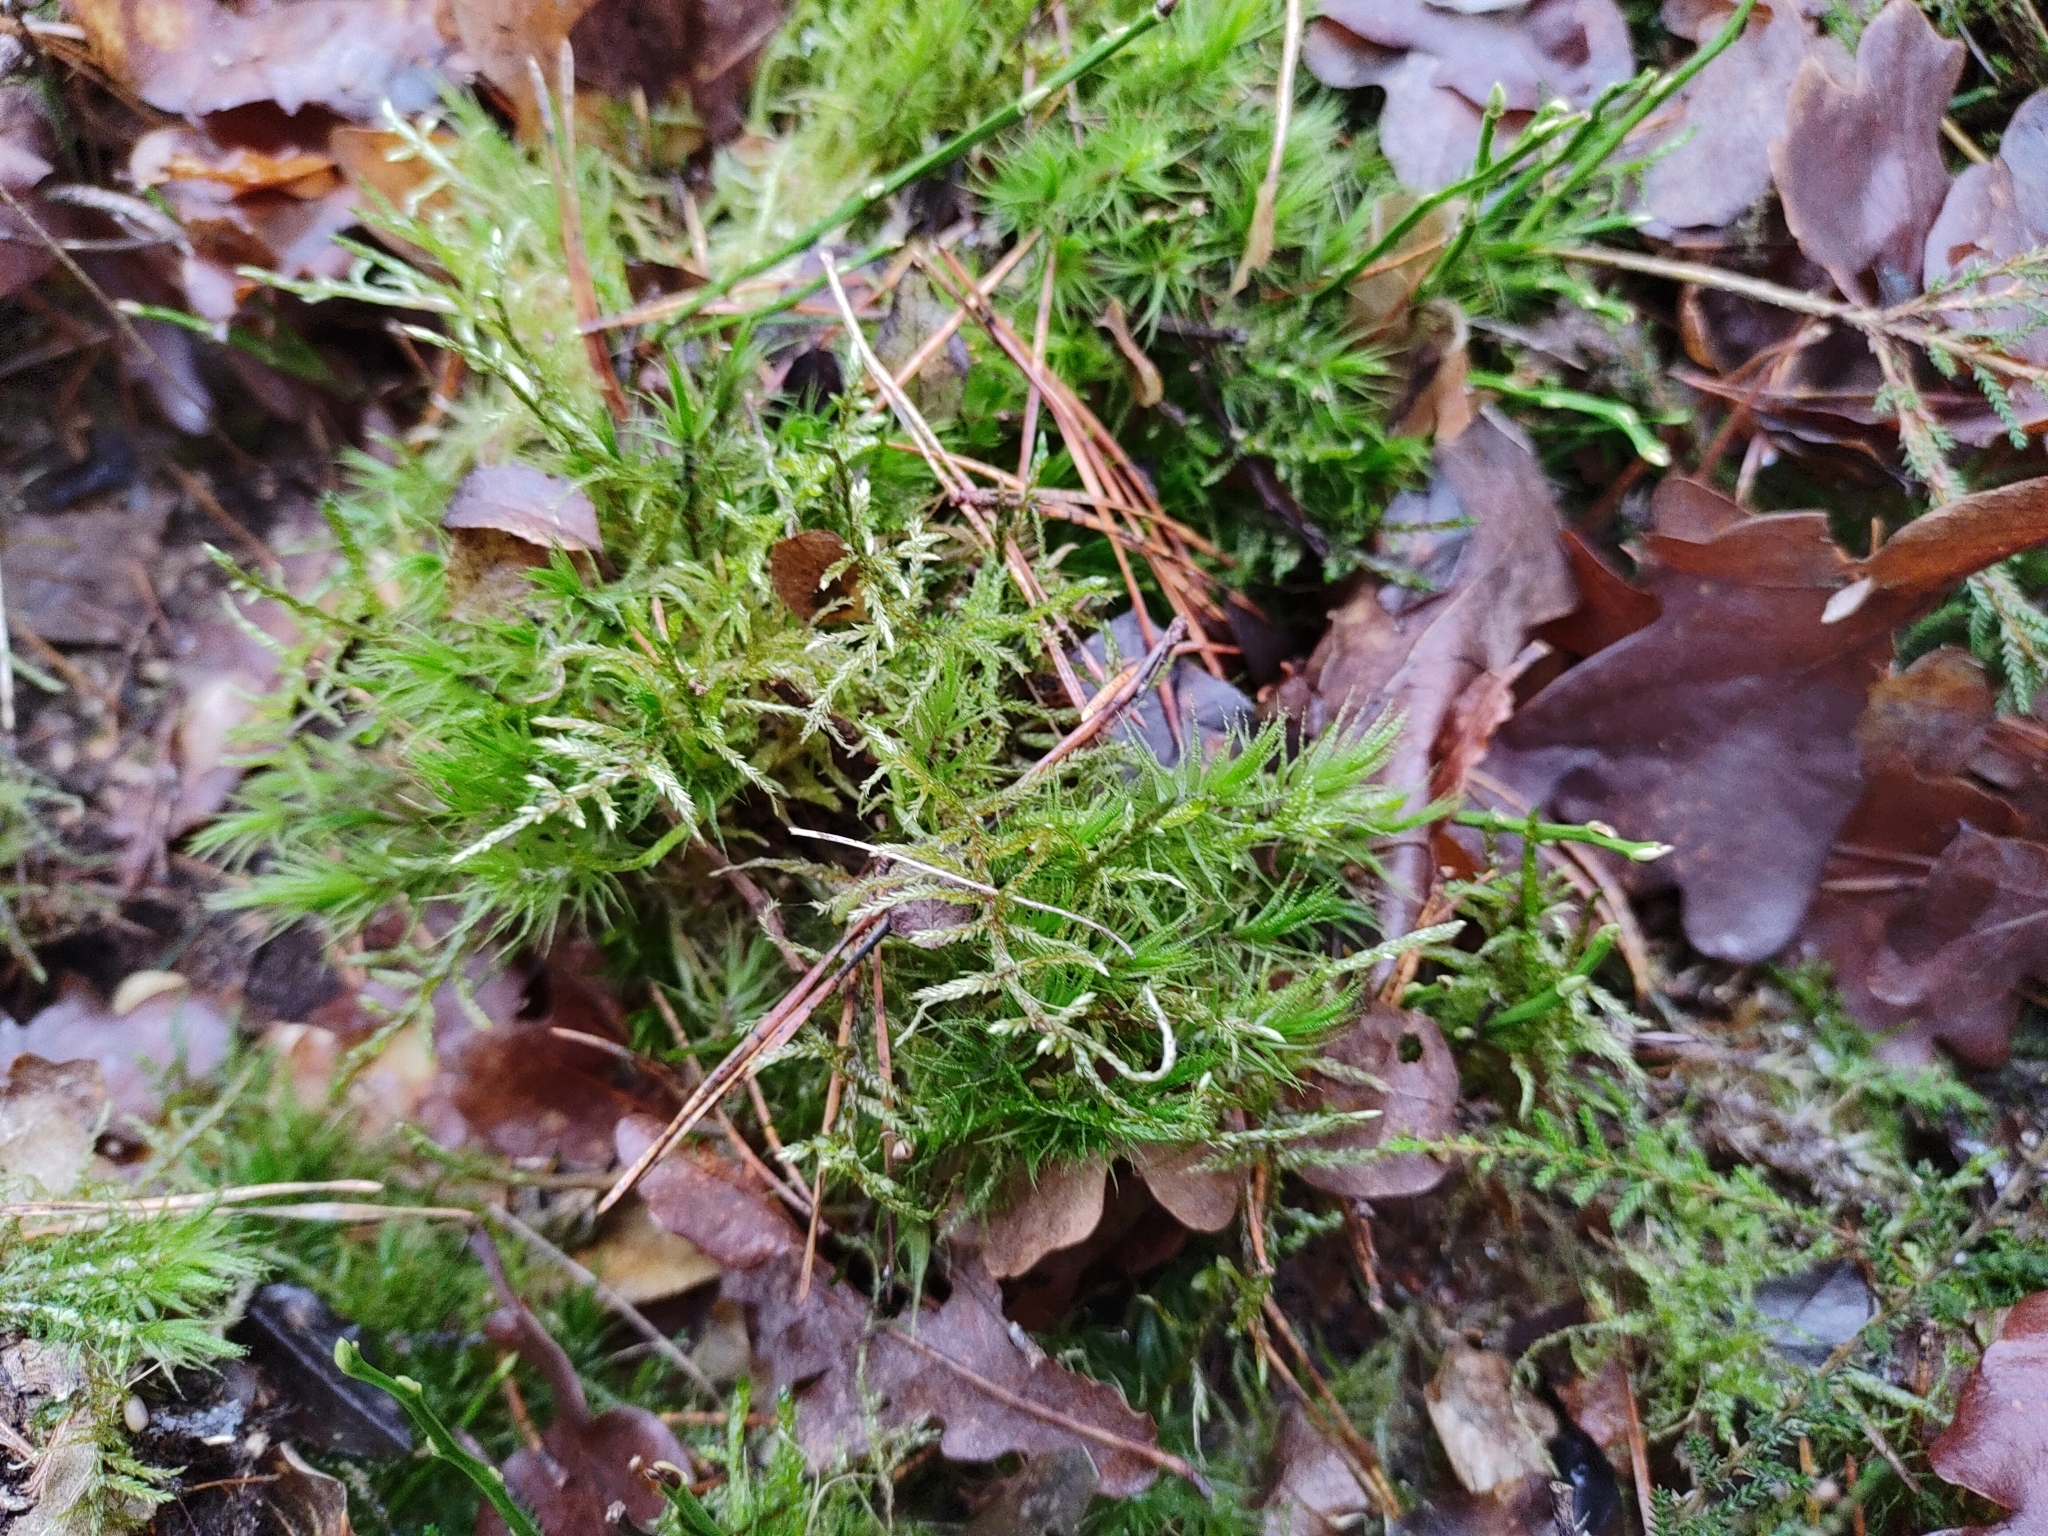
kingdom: Plantae
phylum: Bryophyta
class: Bryopsida
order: Dicranales
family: Dicranaceae
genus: Dicranum
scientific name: Dicranum polysetum
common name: Rugose fork-moss
